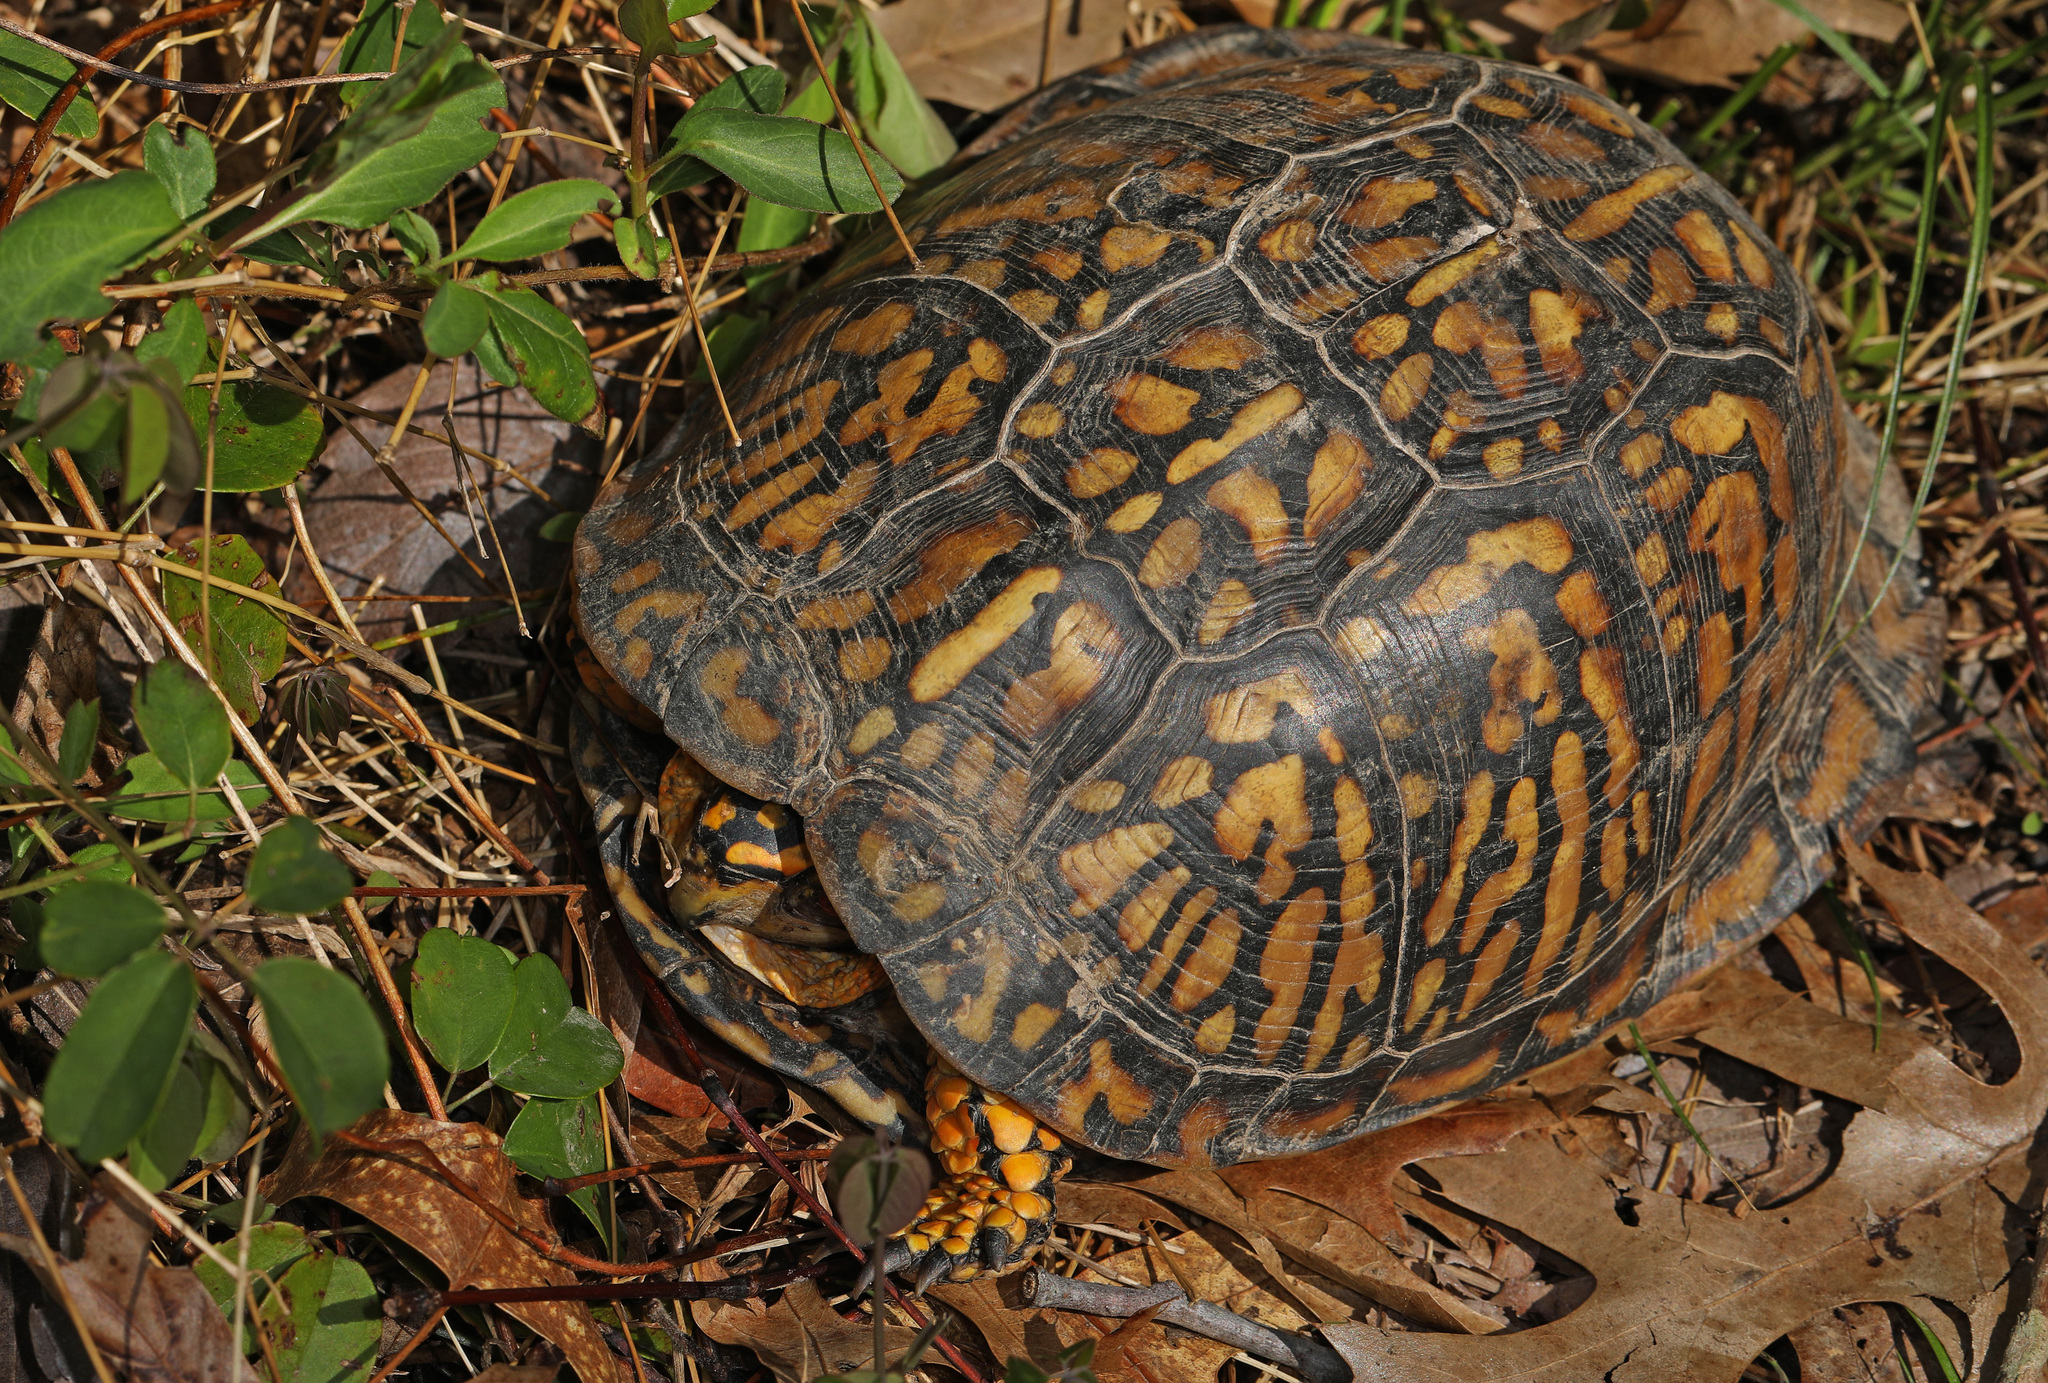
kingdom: Animalia
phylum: Chordata
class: Testudines
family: Emydidae
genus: Terrapene
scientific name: Terrapene carolina
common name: Common box turtle
